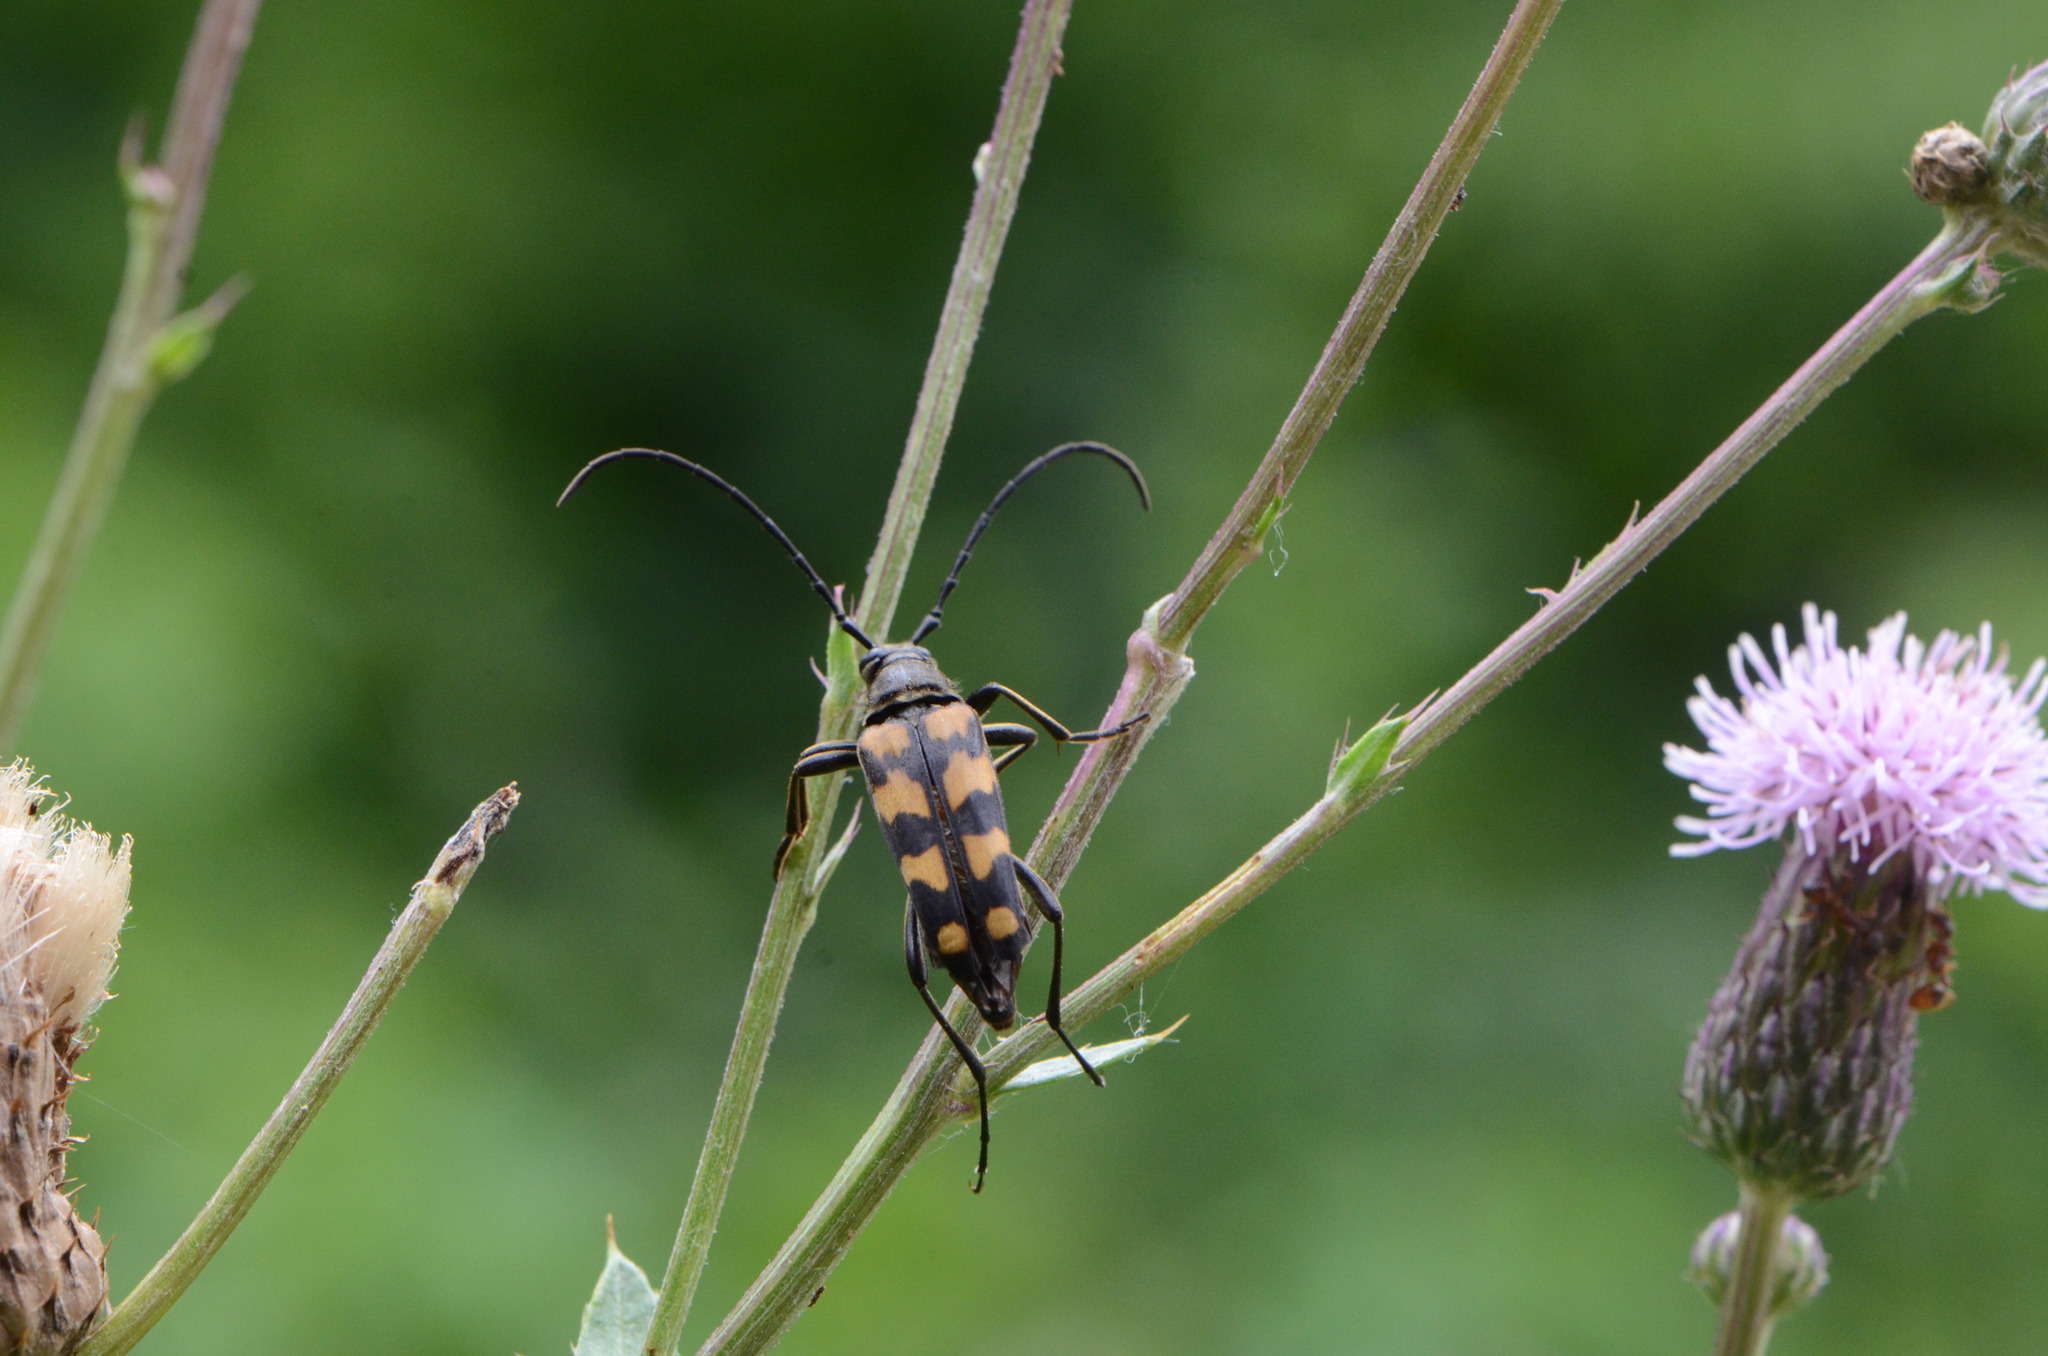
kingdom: Animalia
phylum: Arthropoda
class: Insecta
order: Coleoptera
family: Cerambycidae
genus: Leptura
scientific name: Leptura quadrifasciata
